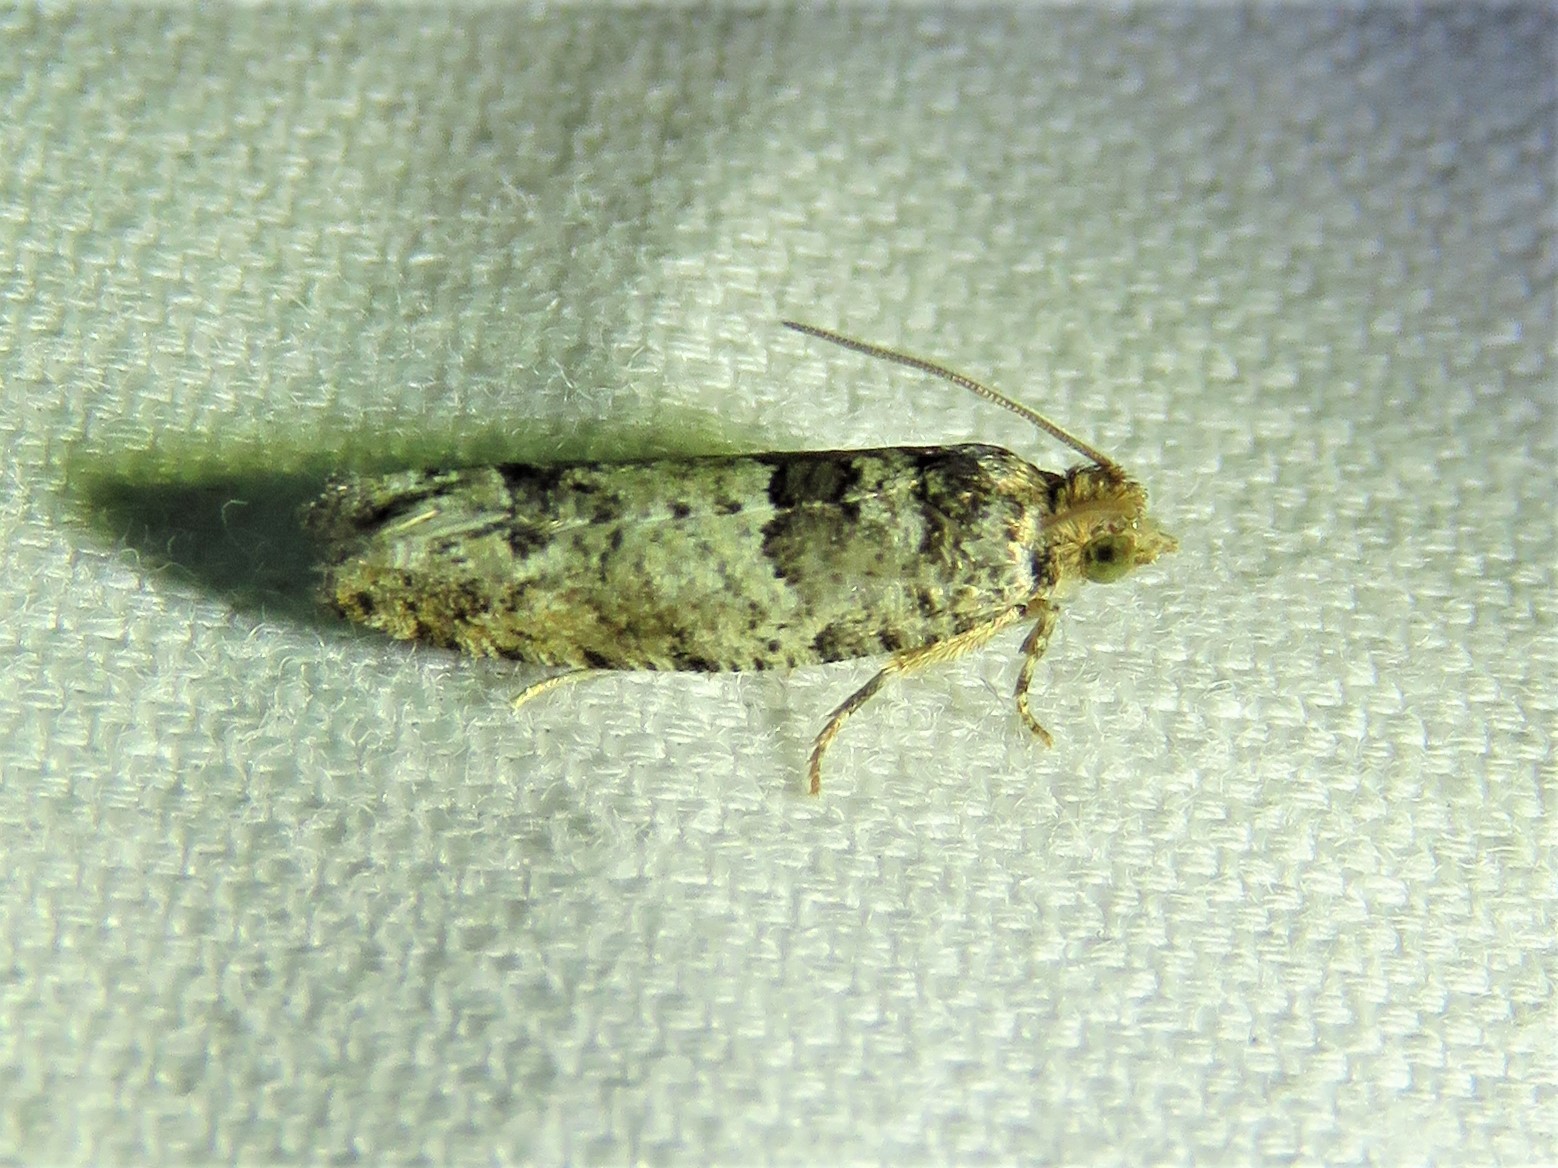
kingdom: Animalia
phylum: Arthropoda
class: Insecta
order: Lepidoptera
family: Tortricidae
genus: Pseudexentera
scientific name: Pseudexentera knudsoni
